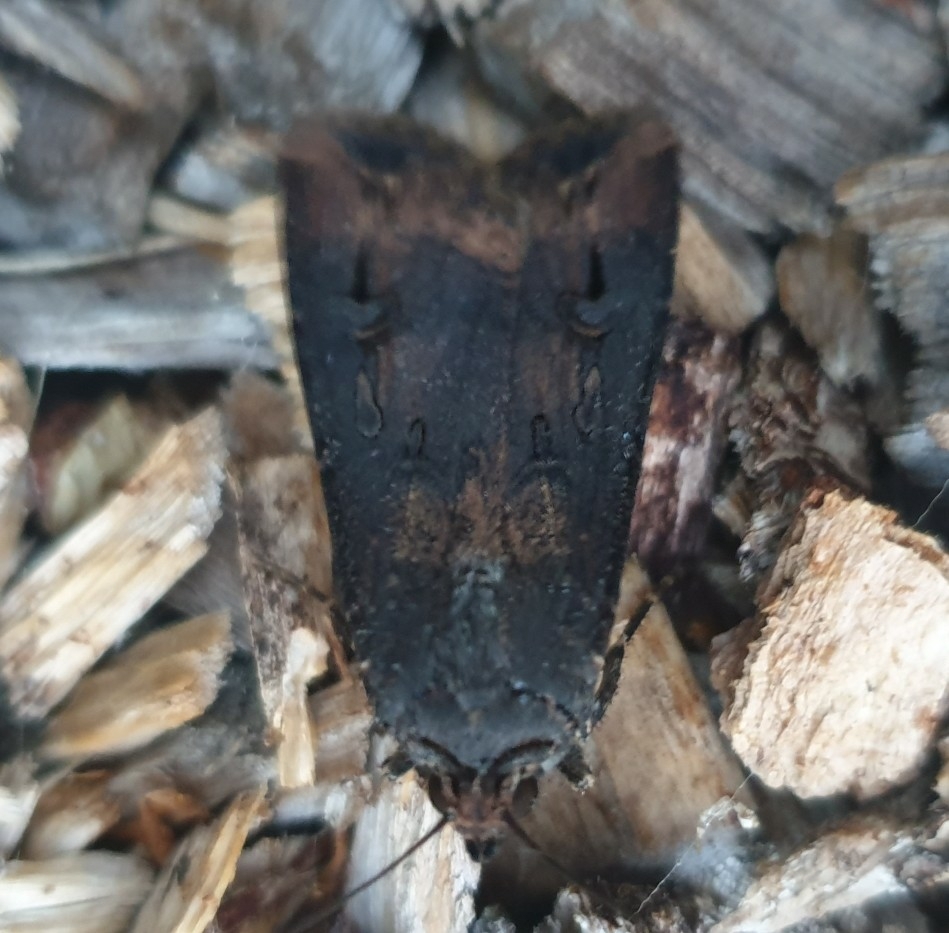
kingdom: Animalia
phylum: Arthropoda
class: Insecta
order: Lepidoptera
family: Noctuidae
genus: Agrotis
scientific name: Agrotis ipsilon
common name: Dark sword-grass
